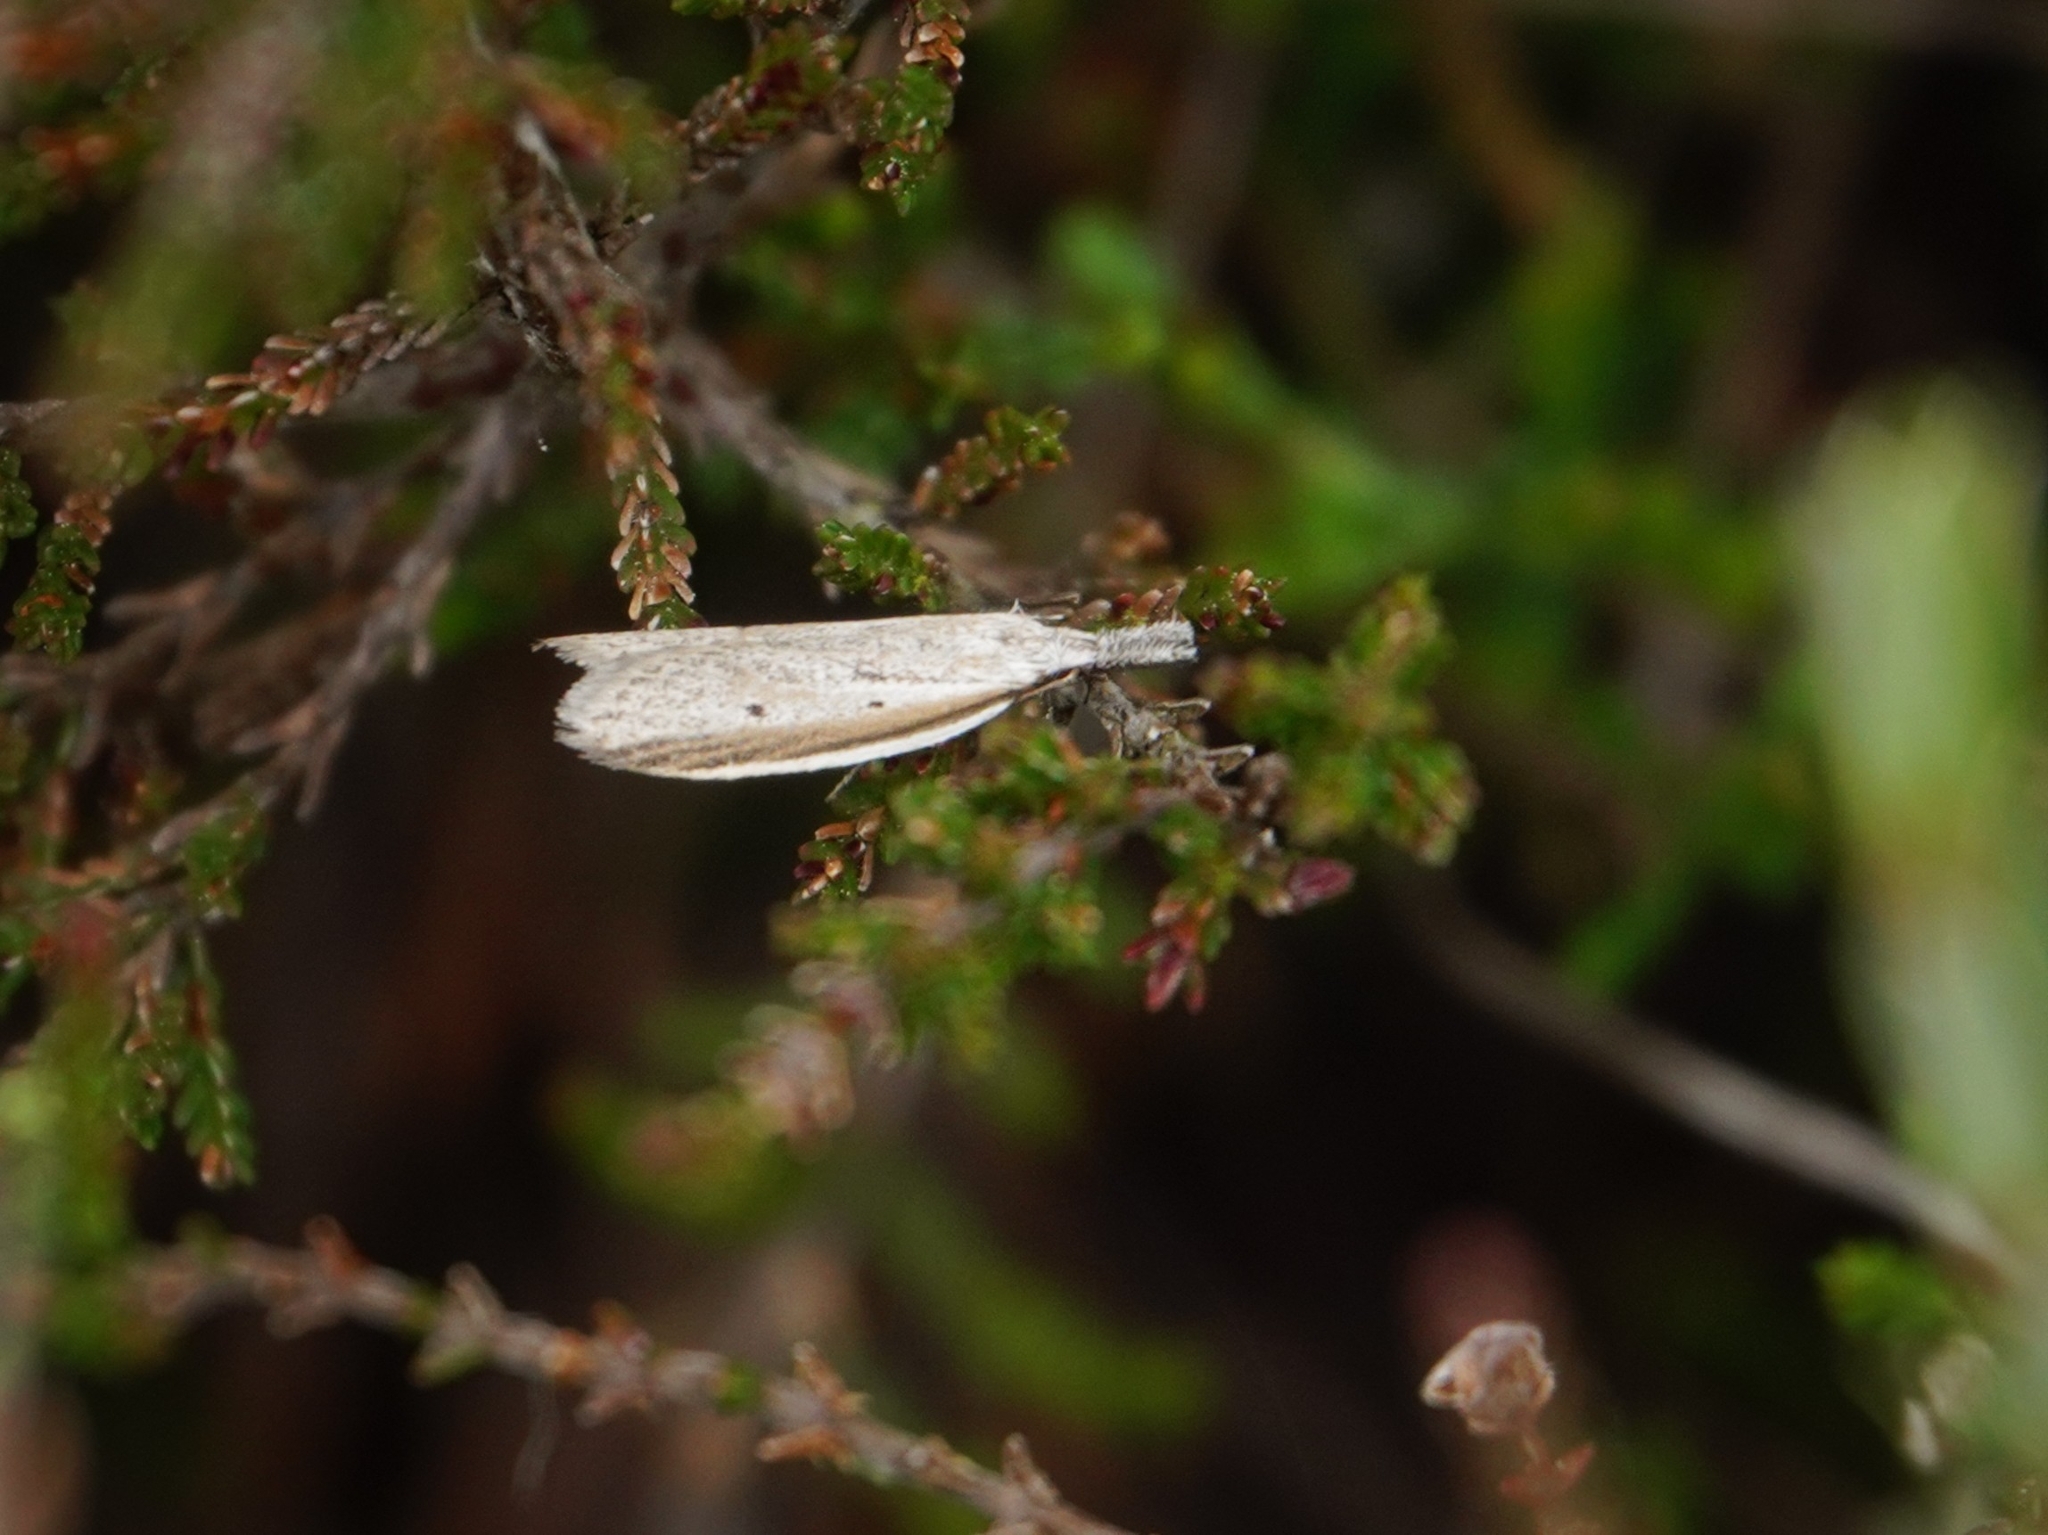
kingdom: Animalia
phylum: Arthropoda
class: Insecta
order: Lepidoptera
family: Oecophoridae
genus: Pleurota
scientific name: Pleurota bicostella
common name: Light streak
